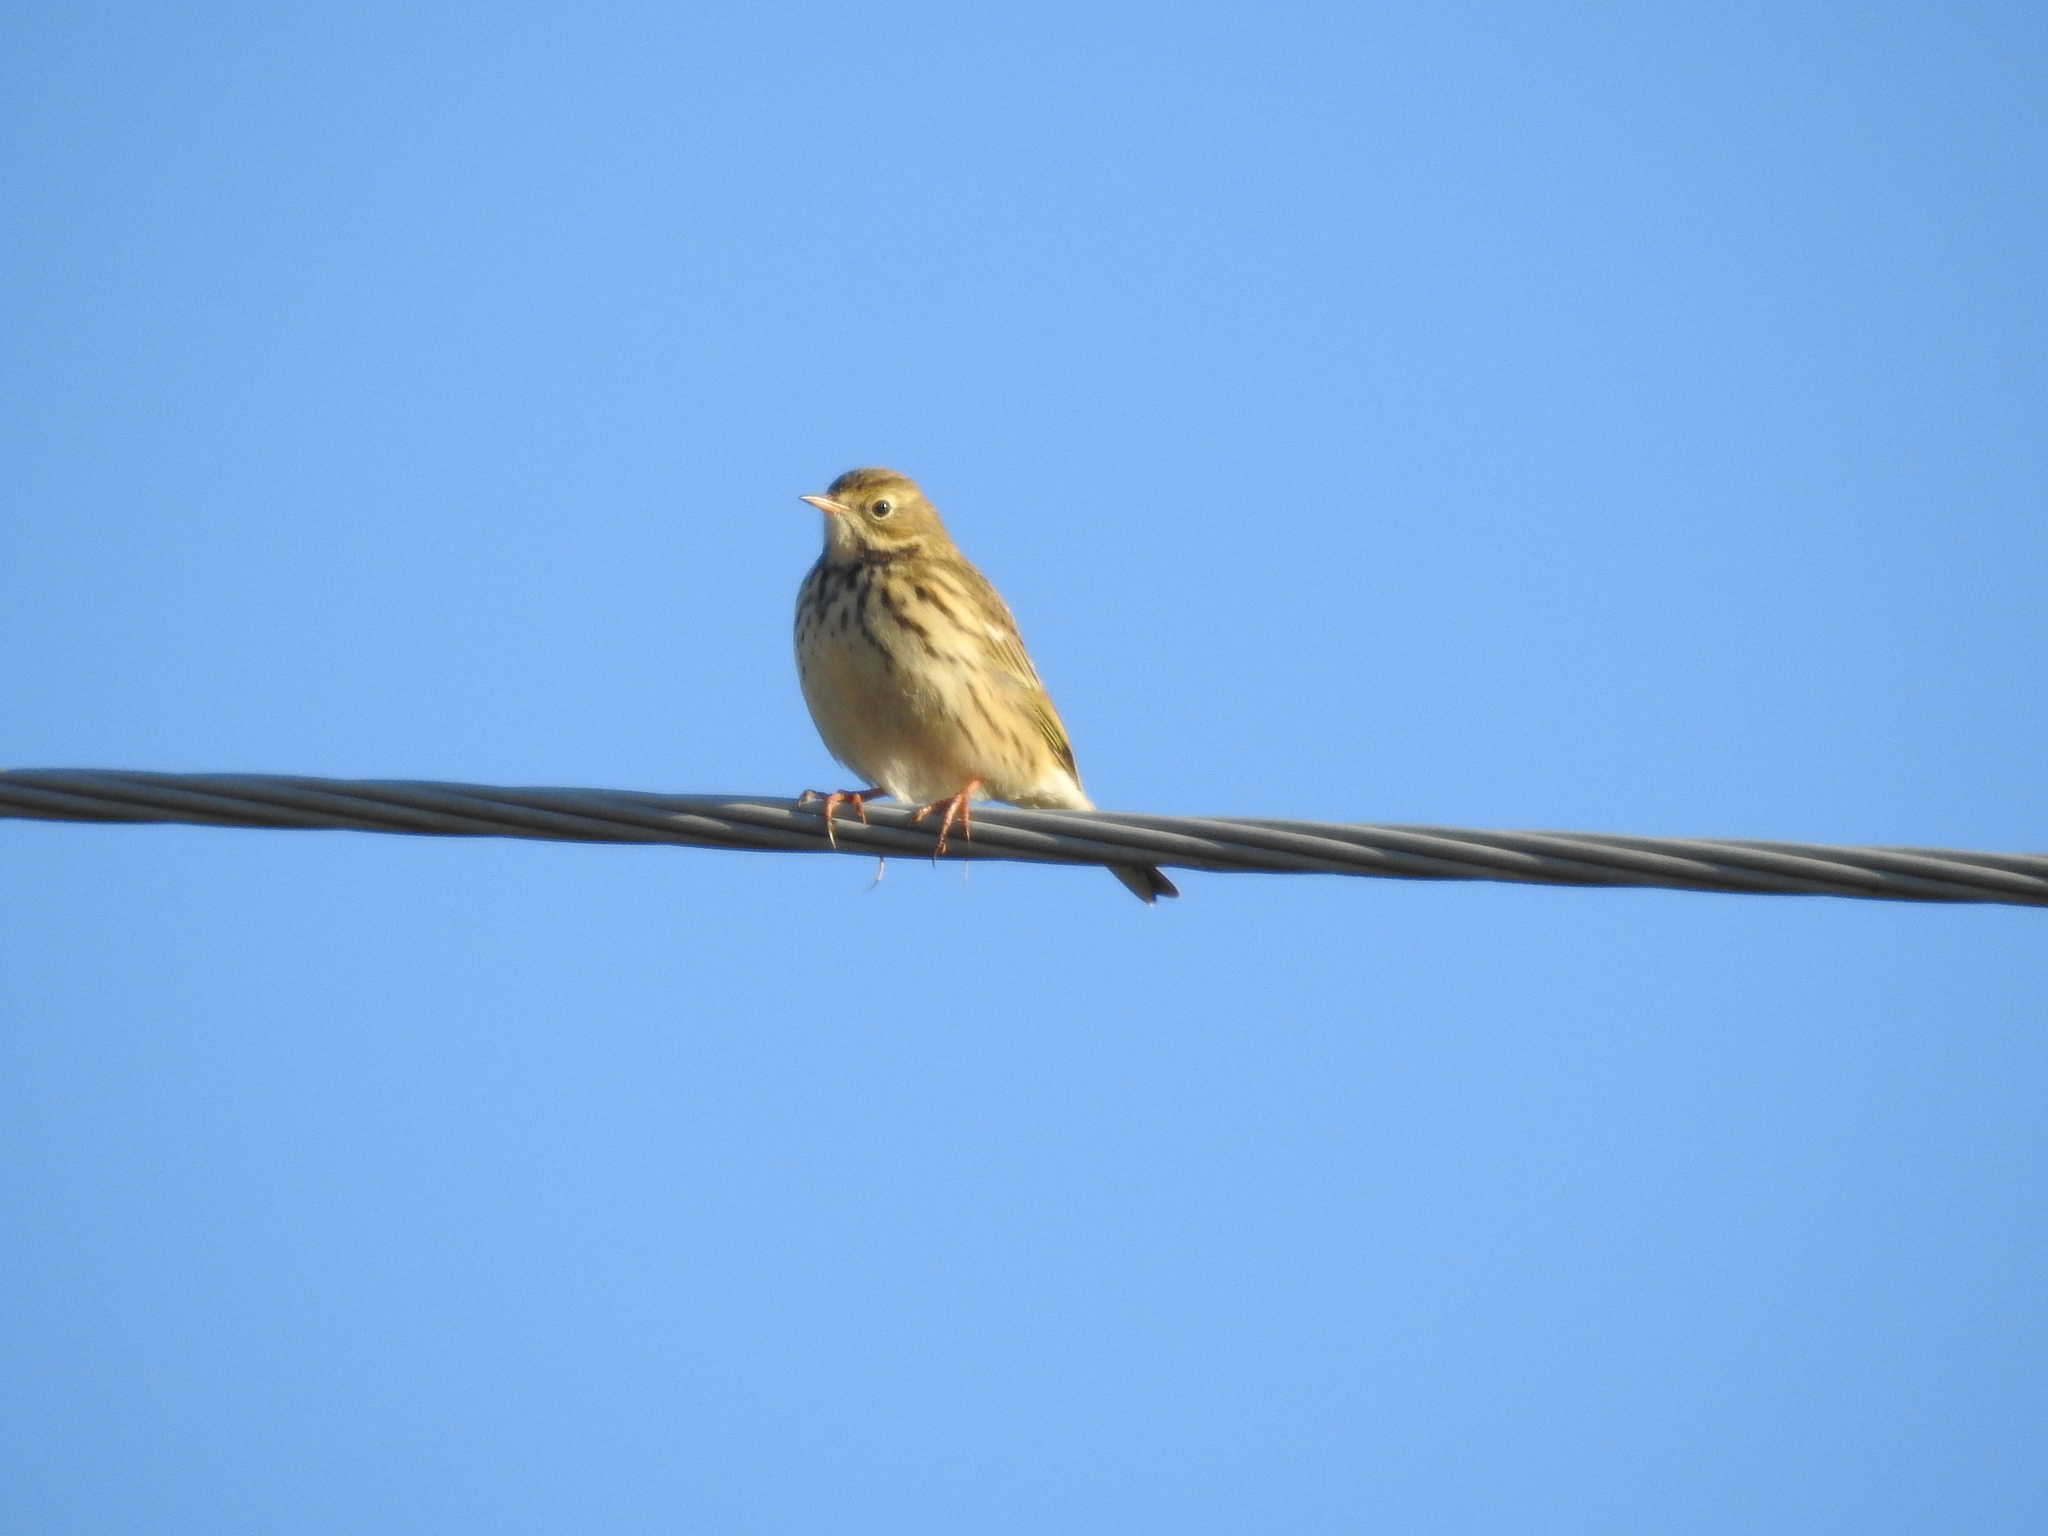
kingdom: Animalia
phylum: Chordata
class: Aves
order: Passeriformes
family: Motacillidae
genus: Anthus
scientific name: Anthus trivialis
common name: Tree pipit
